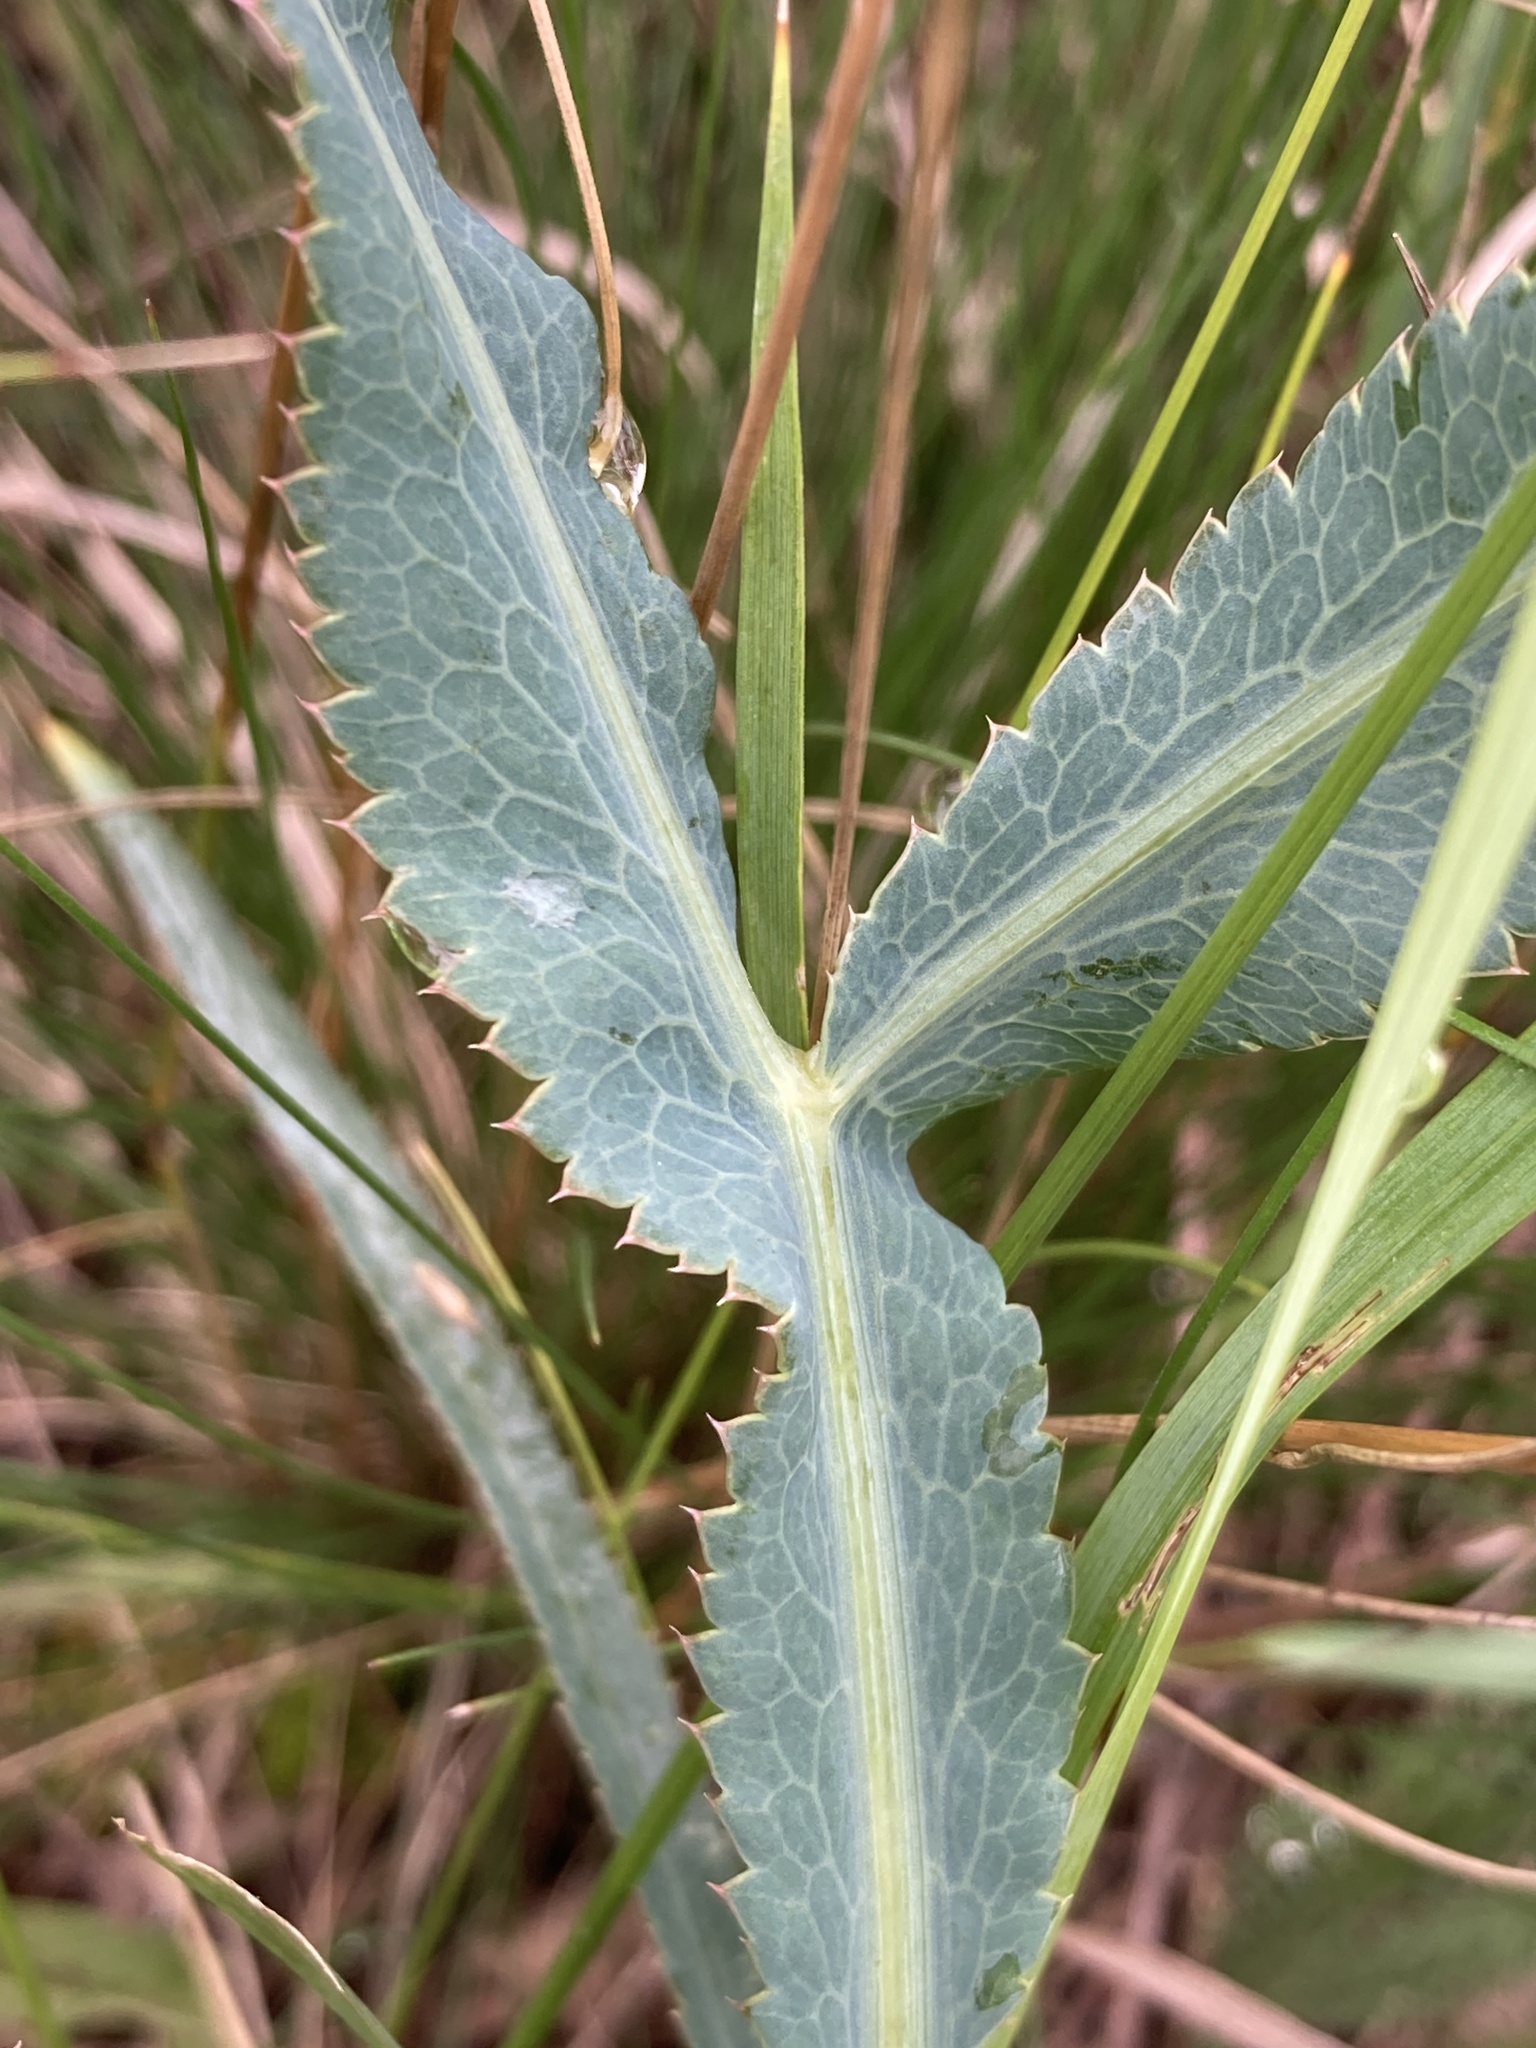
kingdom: Plantae
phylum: Tracheophyta
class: Magnoliopsida
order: Apiales
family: Apiaceae
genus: Falcaria
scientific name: Falcaria vulgaris
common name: Longleaf
